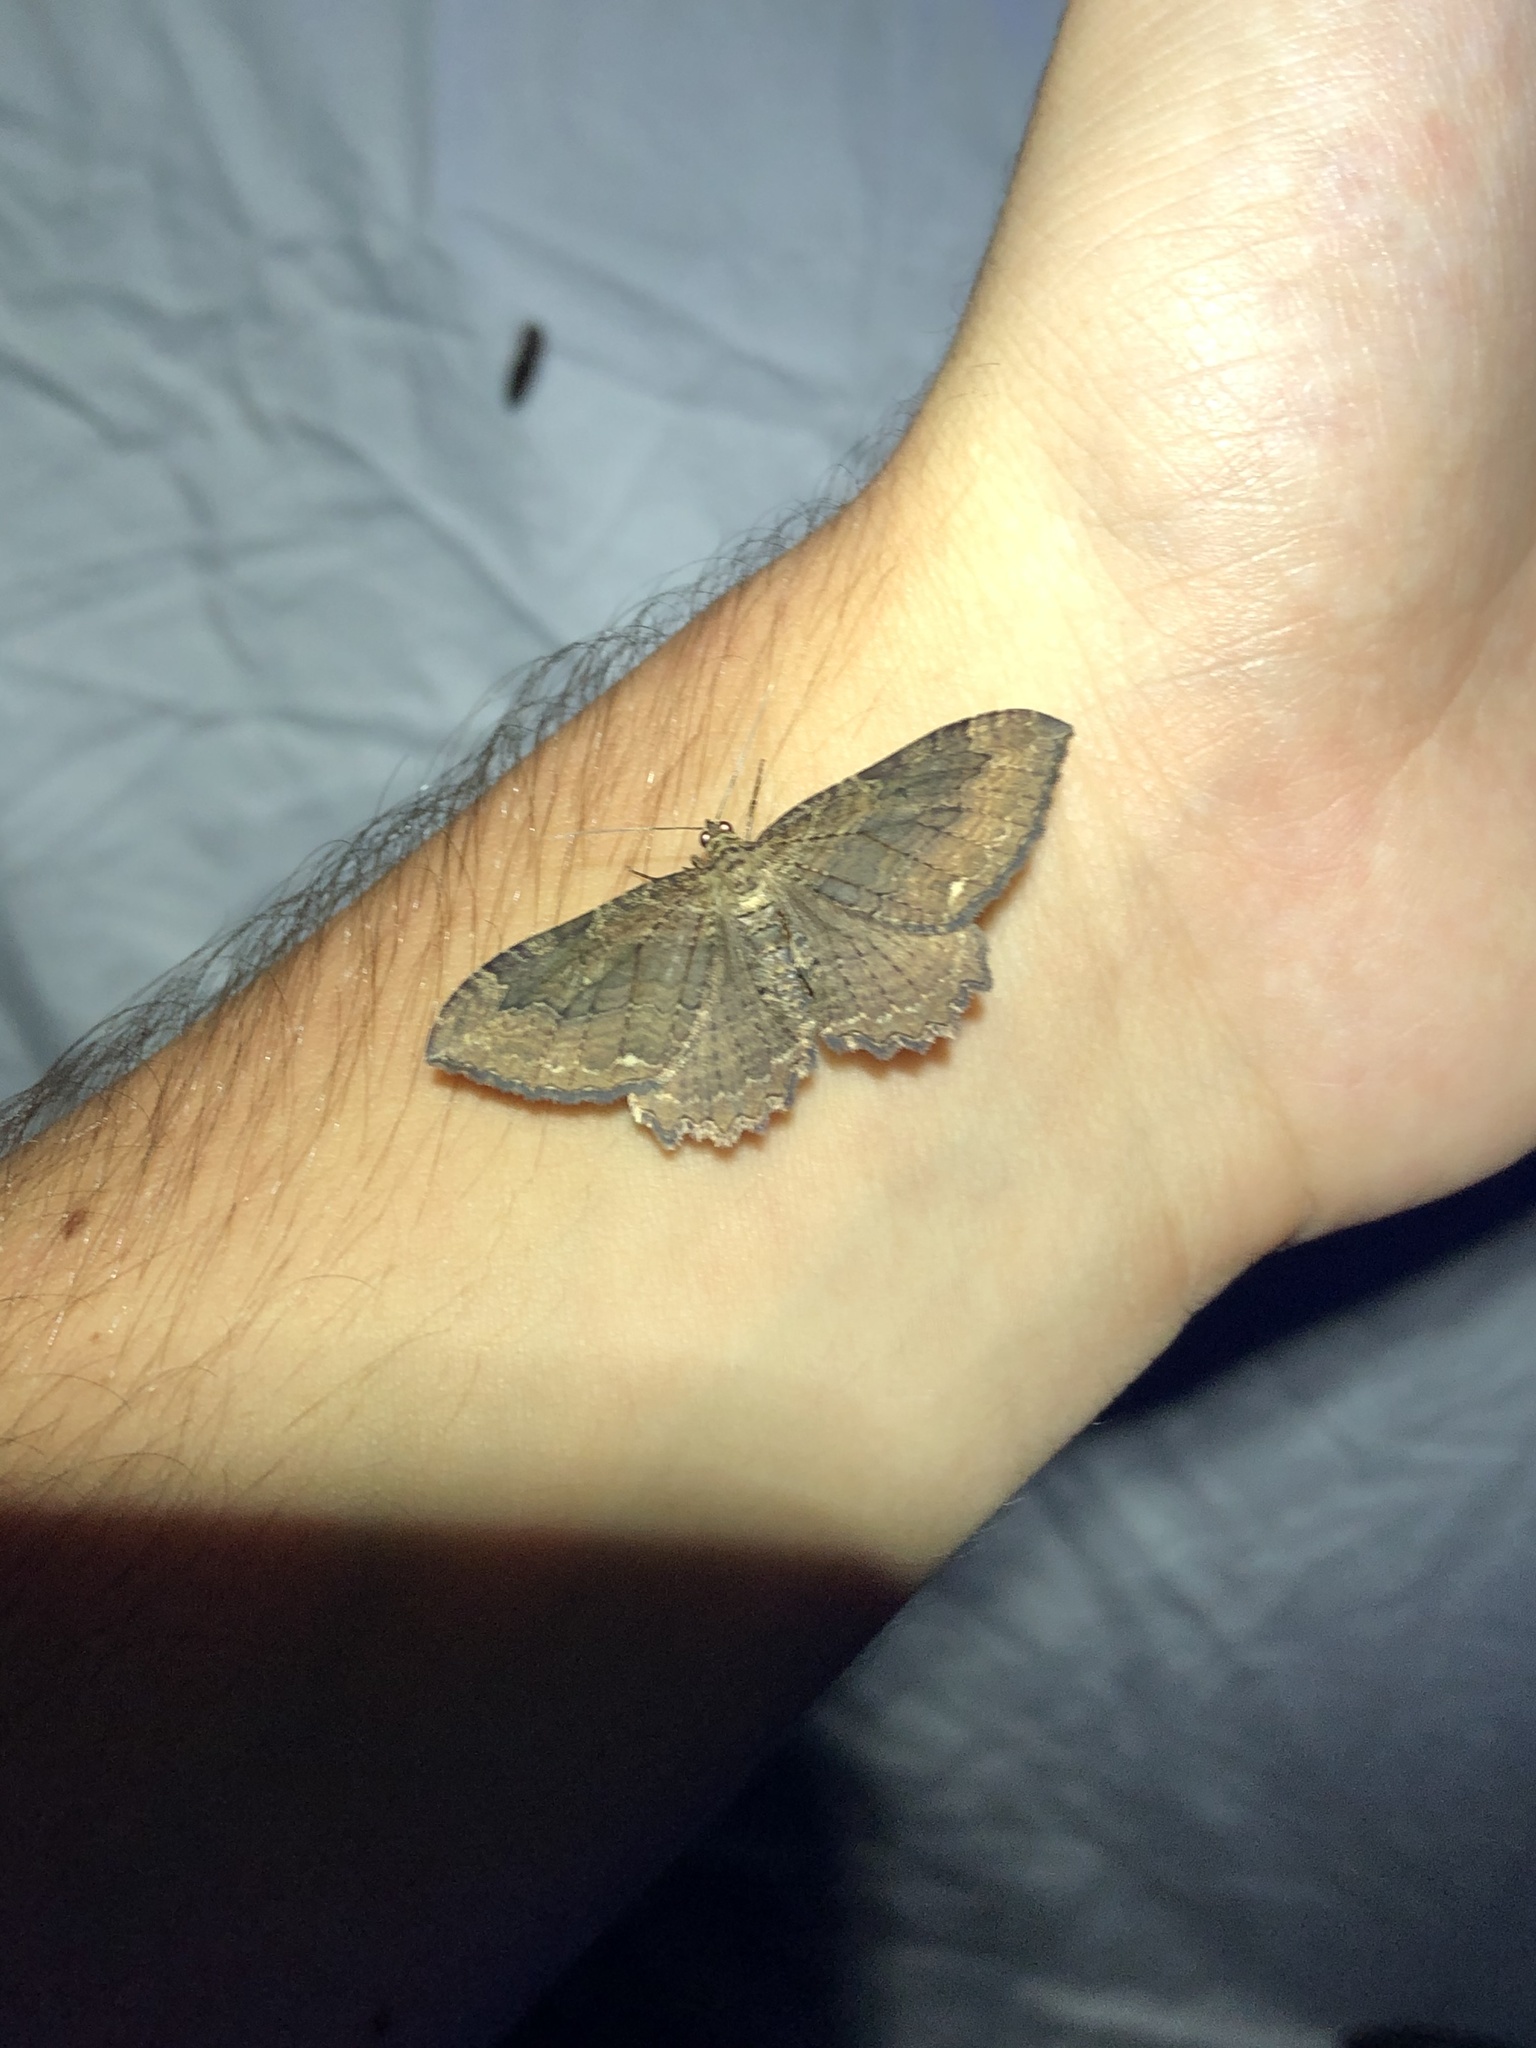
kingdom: Animalia
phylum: Arthropoda
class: Insecta
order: Lepidoptera
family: Geometridae
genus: Rheumaptera
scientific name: Rheumaptera
